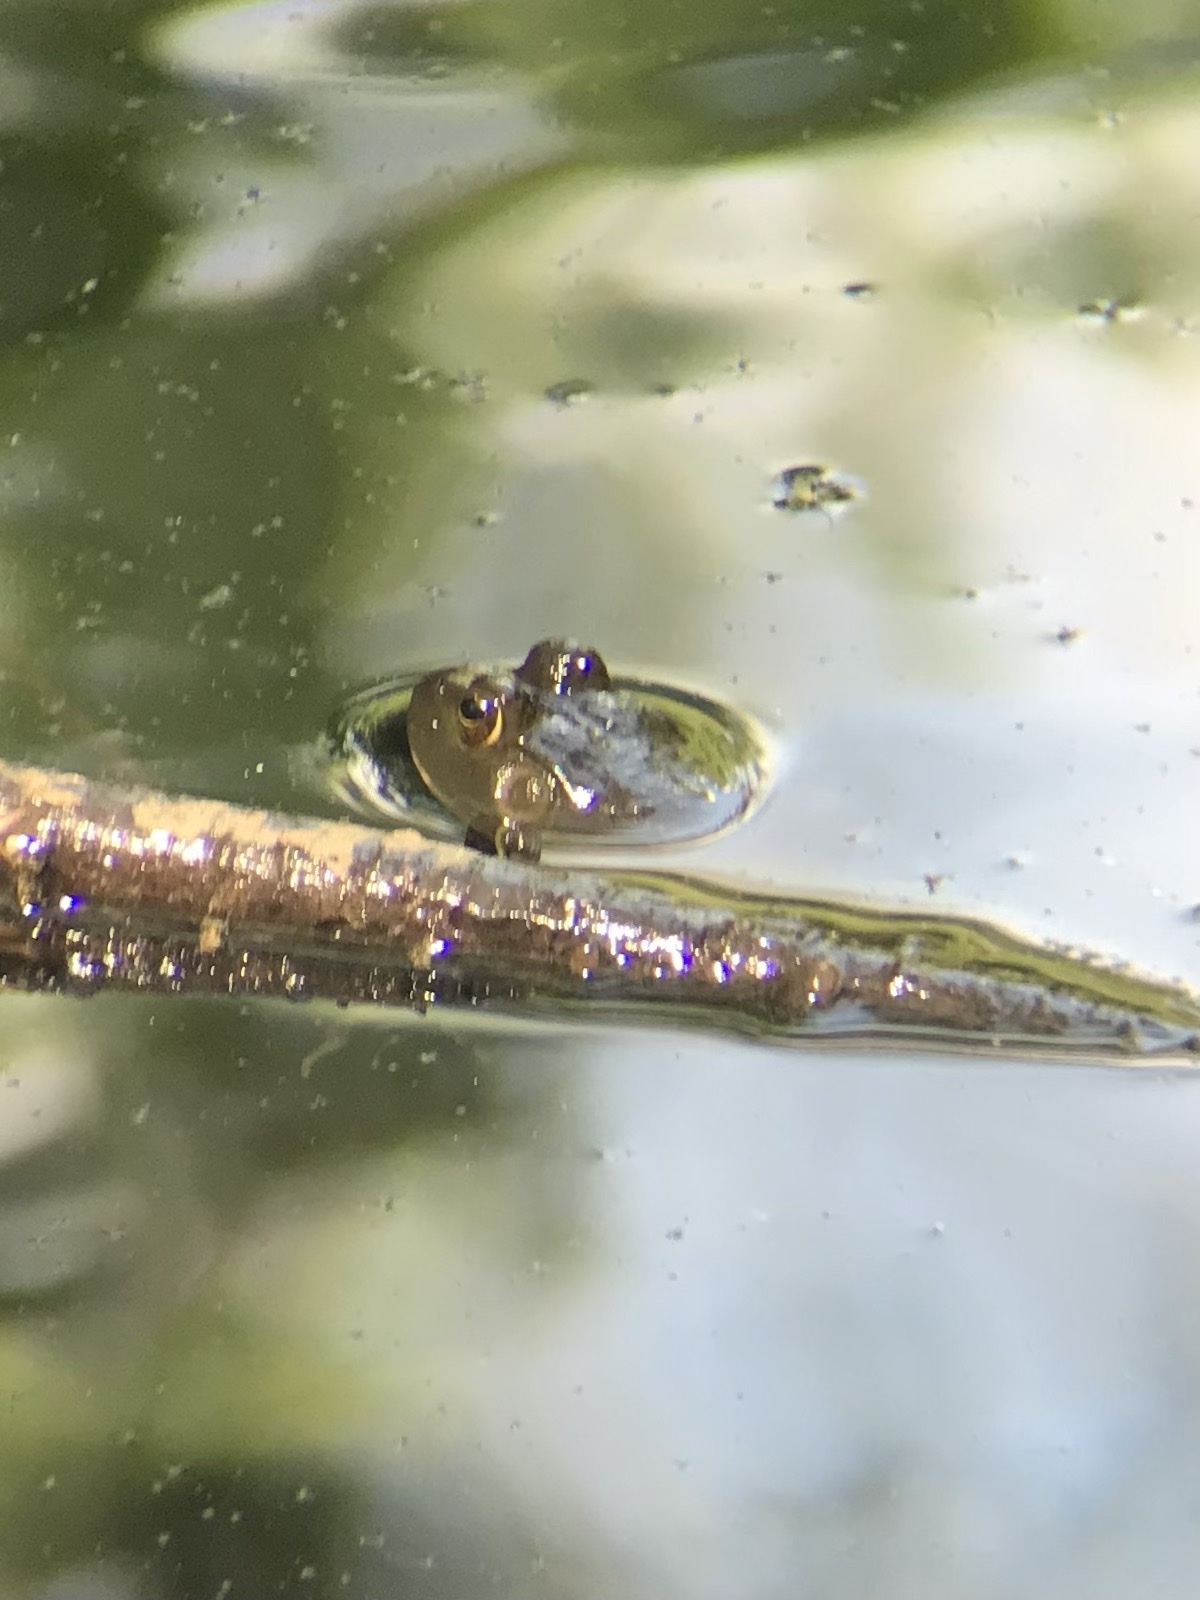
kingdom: Animalia
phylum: Chordata
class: Amphibia
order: Anura
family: Ranidae
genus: Lithobates
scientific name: Lithobates catesbeianus
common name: American bullfrog
